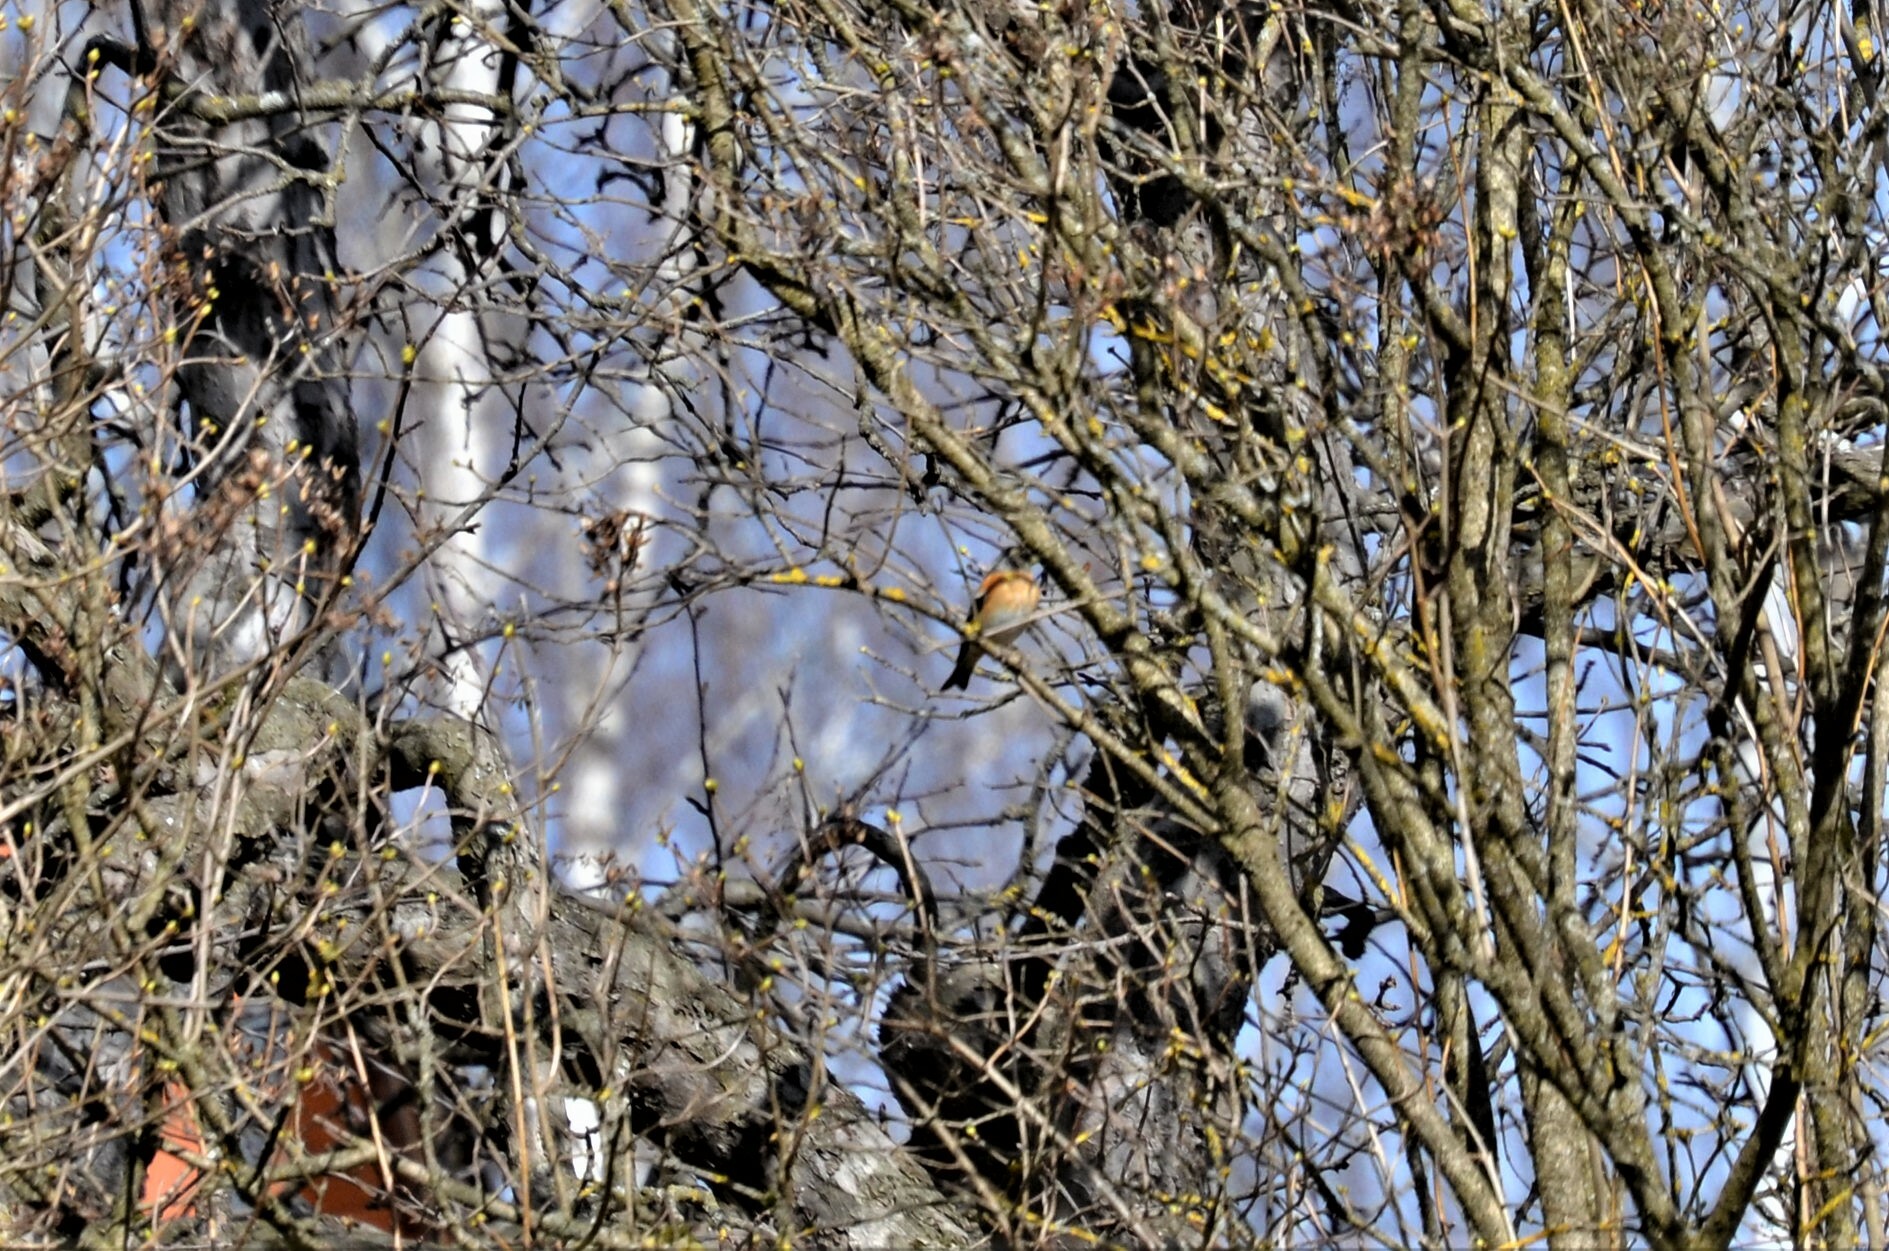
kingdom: Animalia
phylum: Chordata
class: Aves
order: Passeriformes
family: Fringillidae
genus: Fringilla
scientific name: Fringilla montifringilla
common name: Brambling
